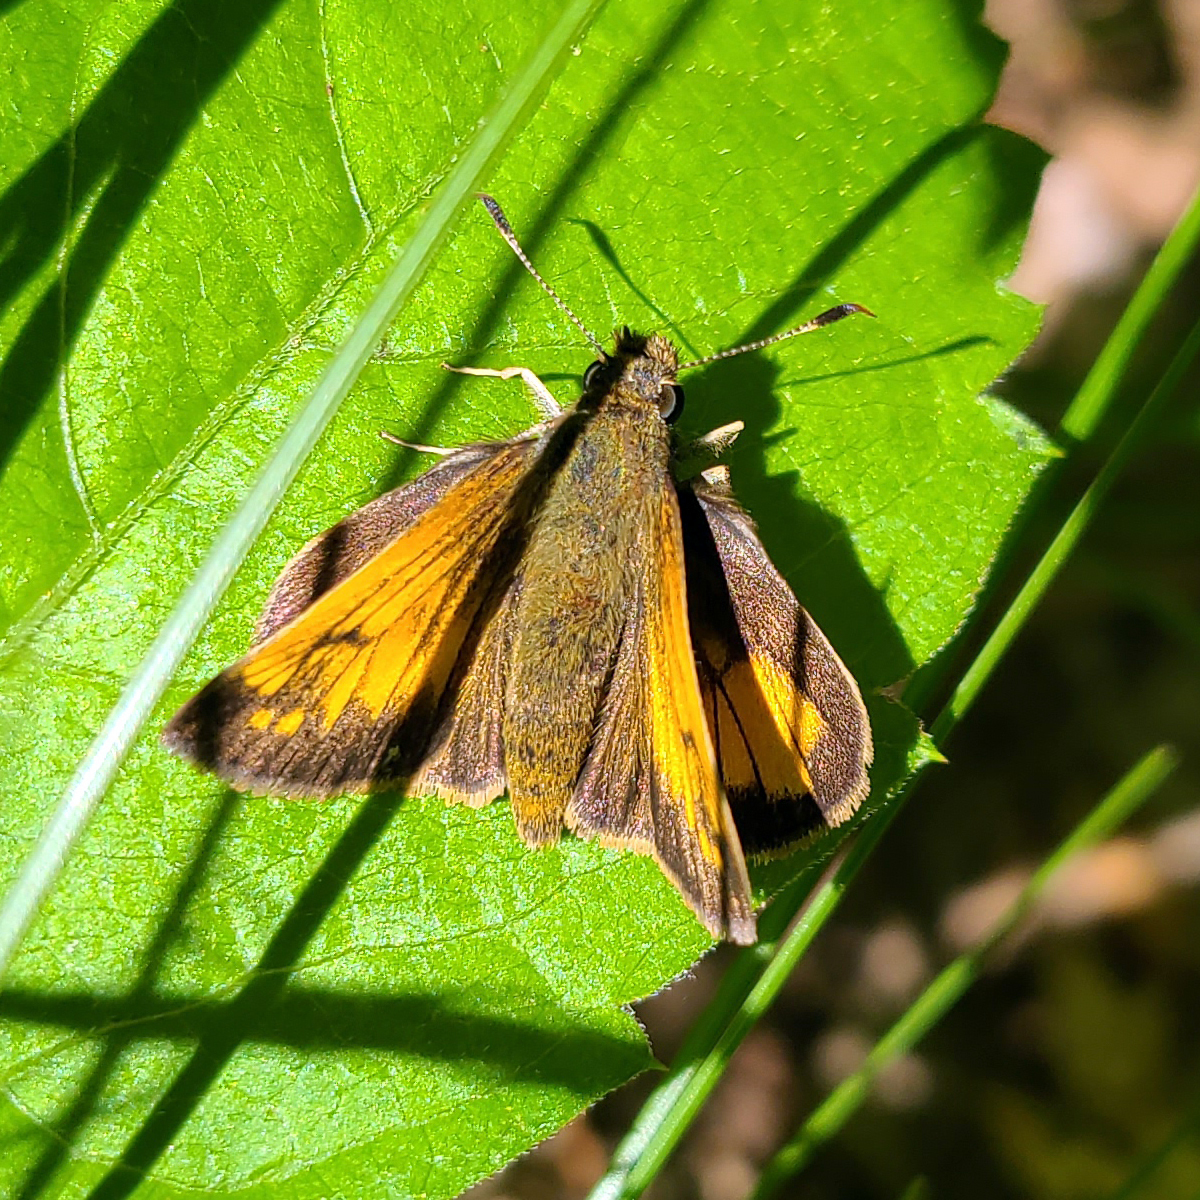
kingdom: Animalia
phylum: Arthropoda
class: Insecta
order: Lepidoptera
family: Hesperiidae
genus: Lon
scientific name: Lon hobomok
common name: Hobomok skipper
